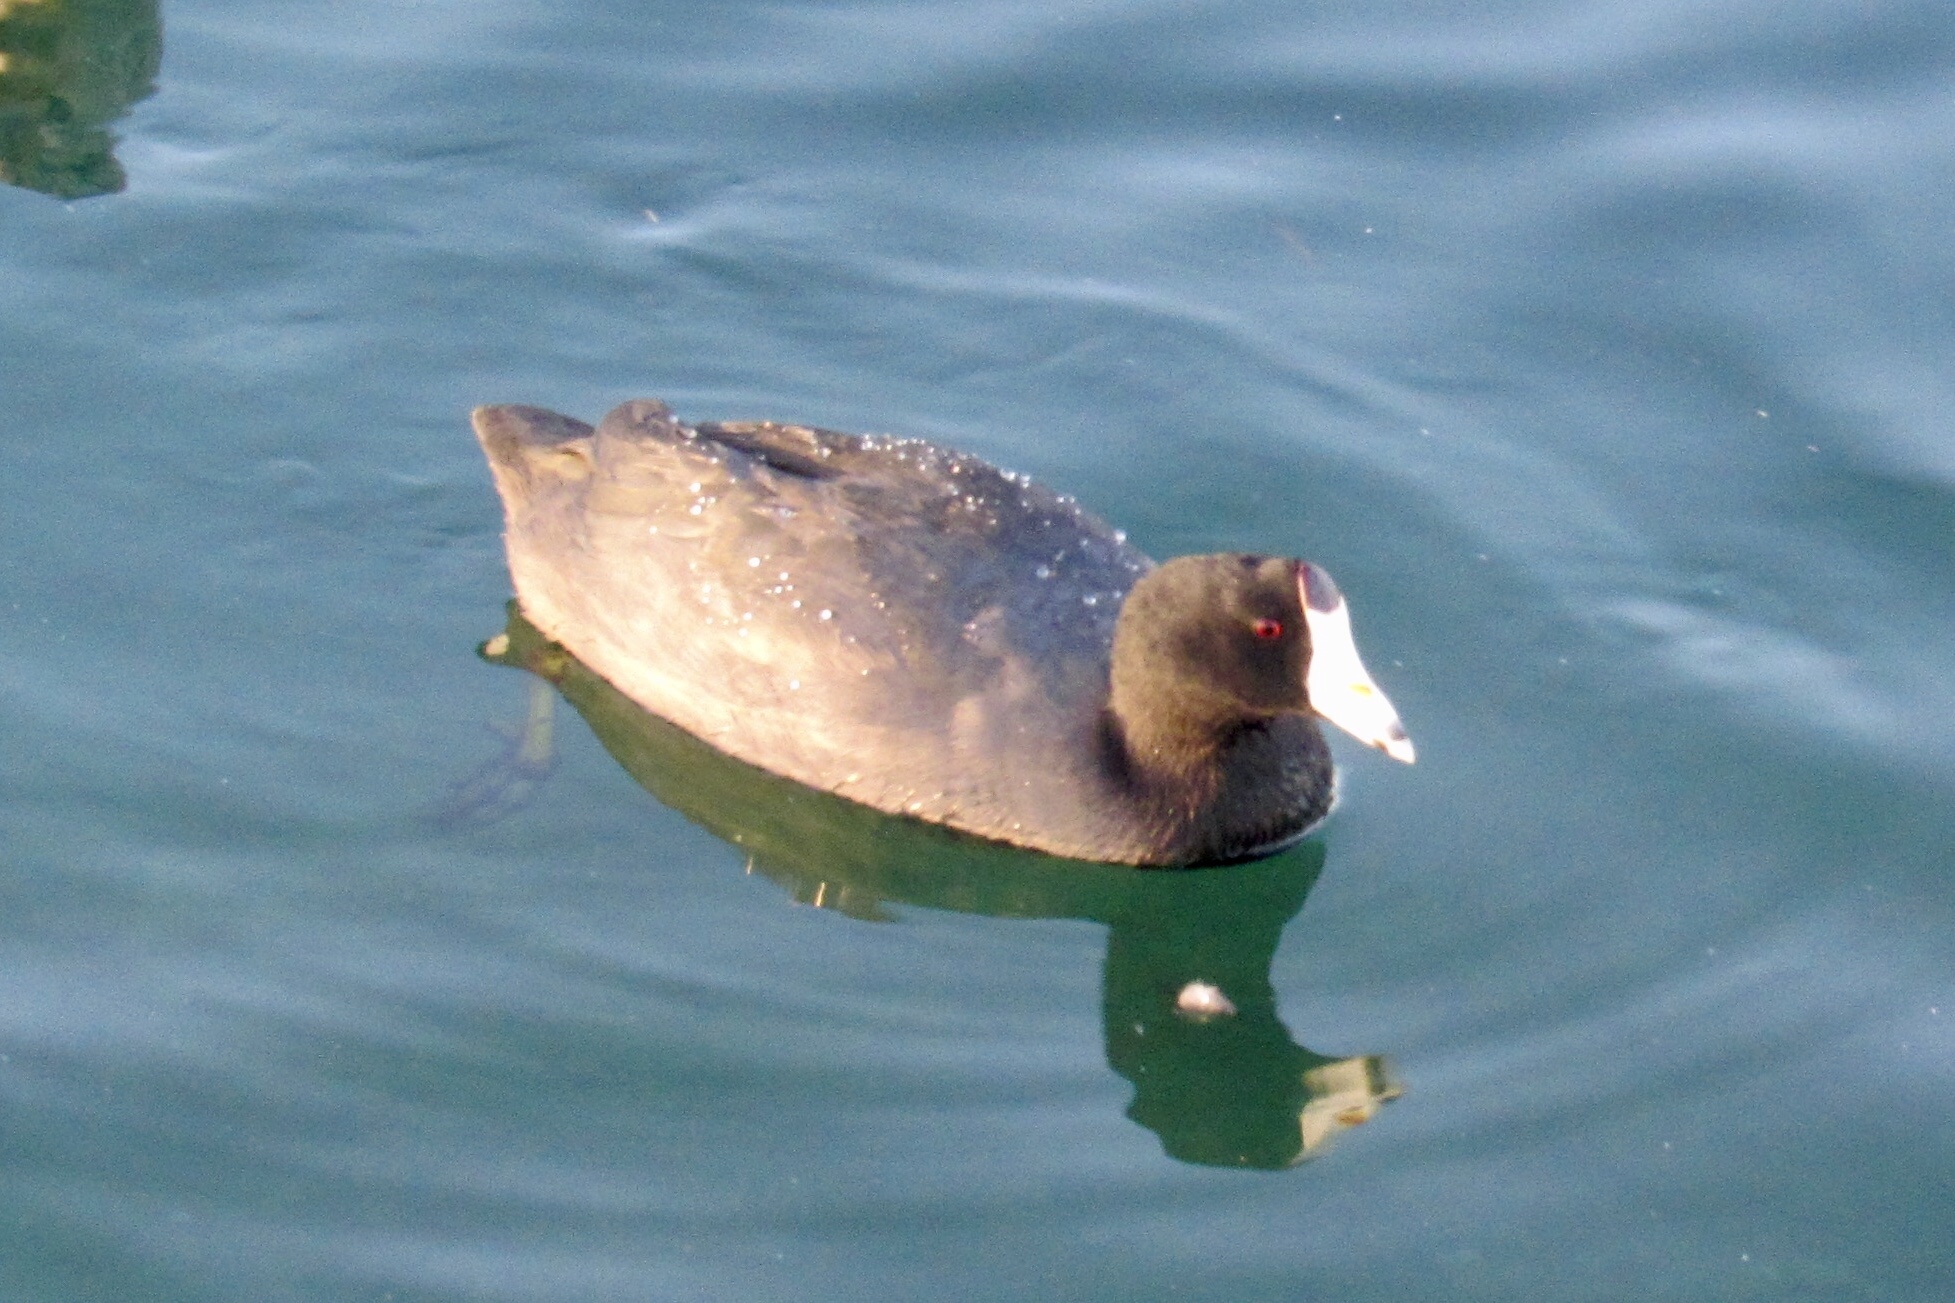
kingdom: Animalia
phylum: Chordata
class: Aves
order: Gruiformes
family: Rallidae
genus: Fulica
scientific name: Fulica americana
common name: American coot
